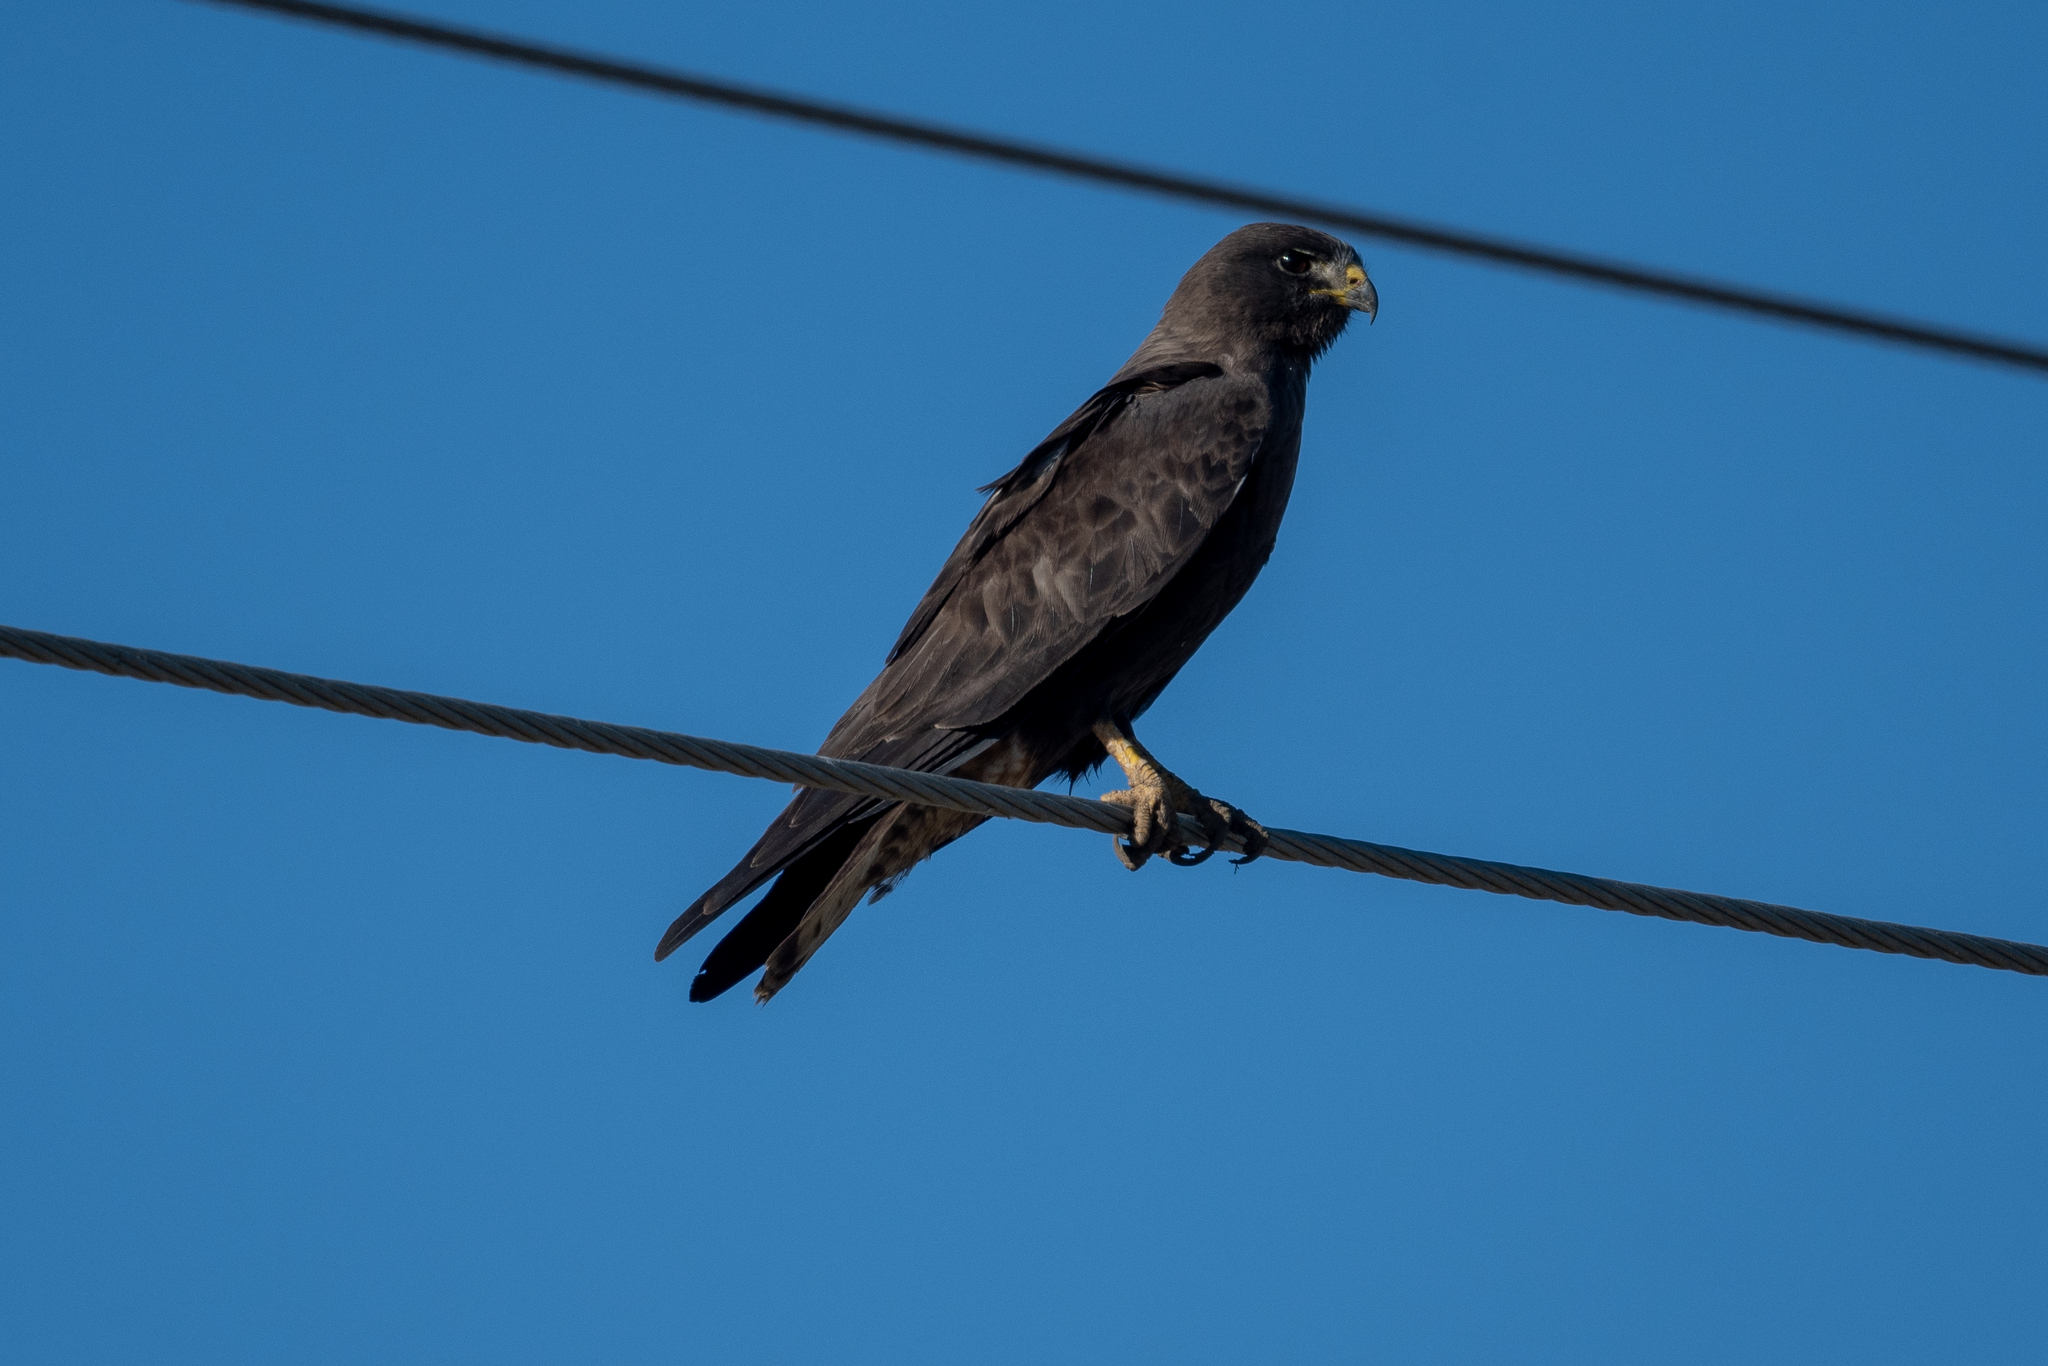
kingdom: Animalia
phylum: Chordata
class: Aves
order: Accipitriformes
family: Accipitridae
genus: Buteo
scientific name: Buteo swainsoni
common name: Swainson's hawk
